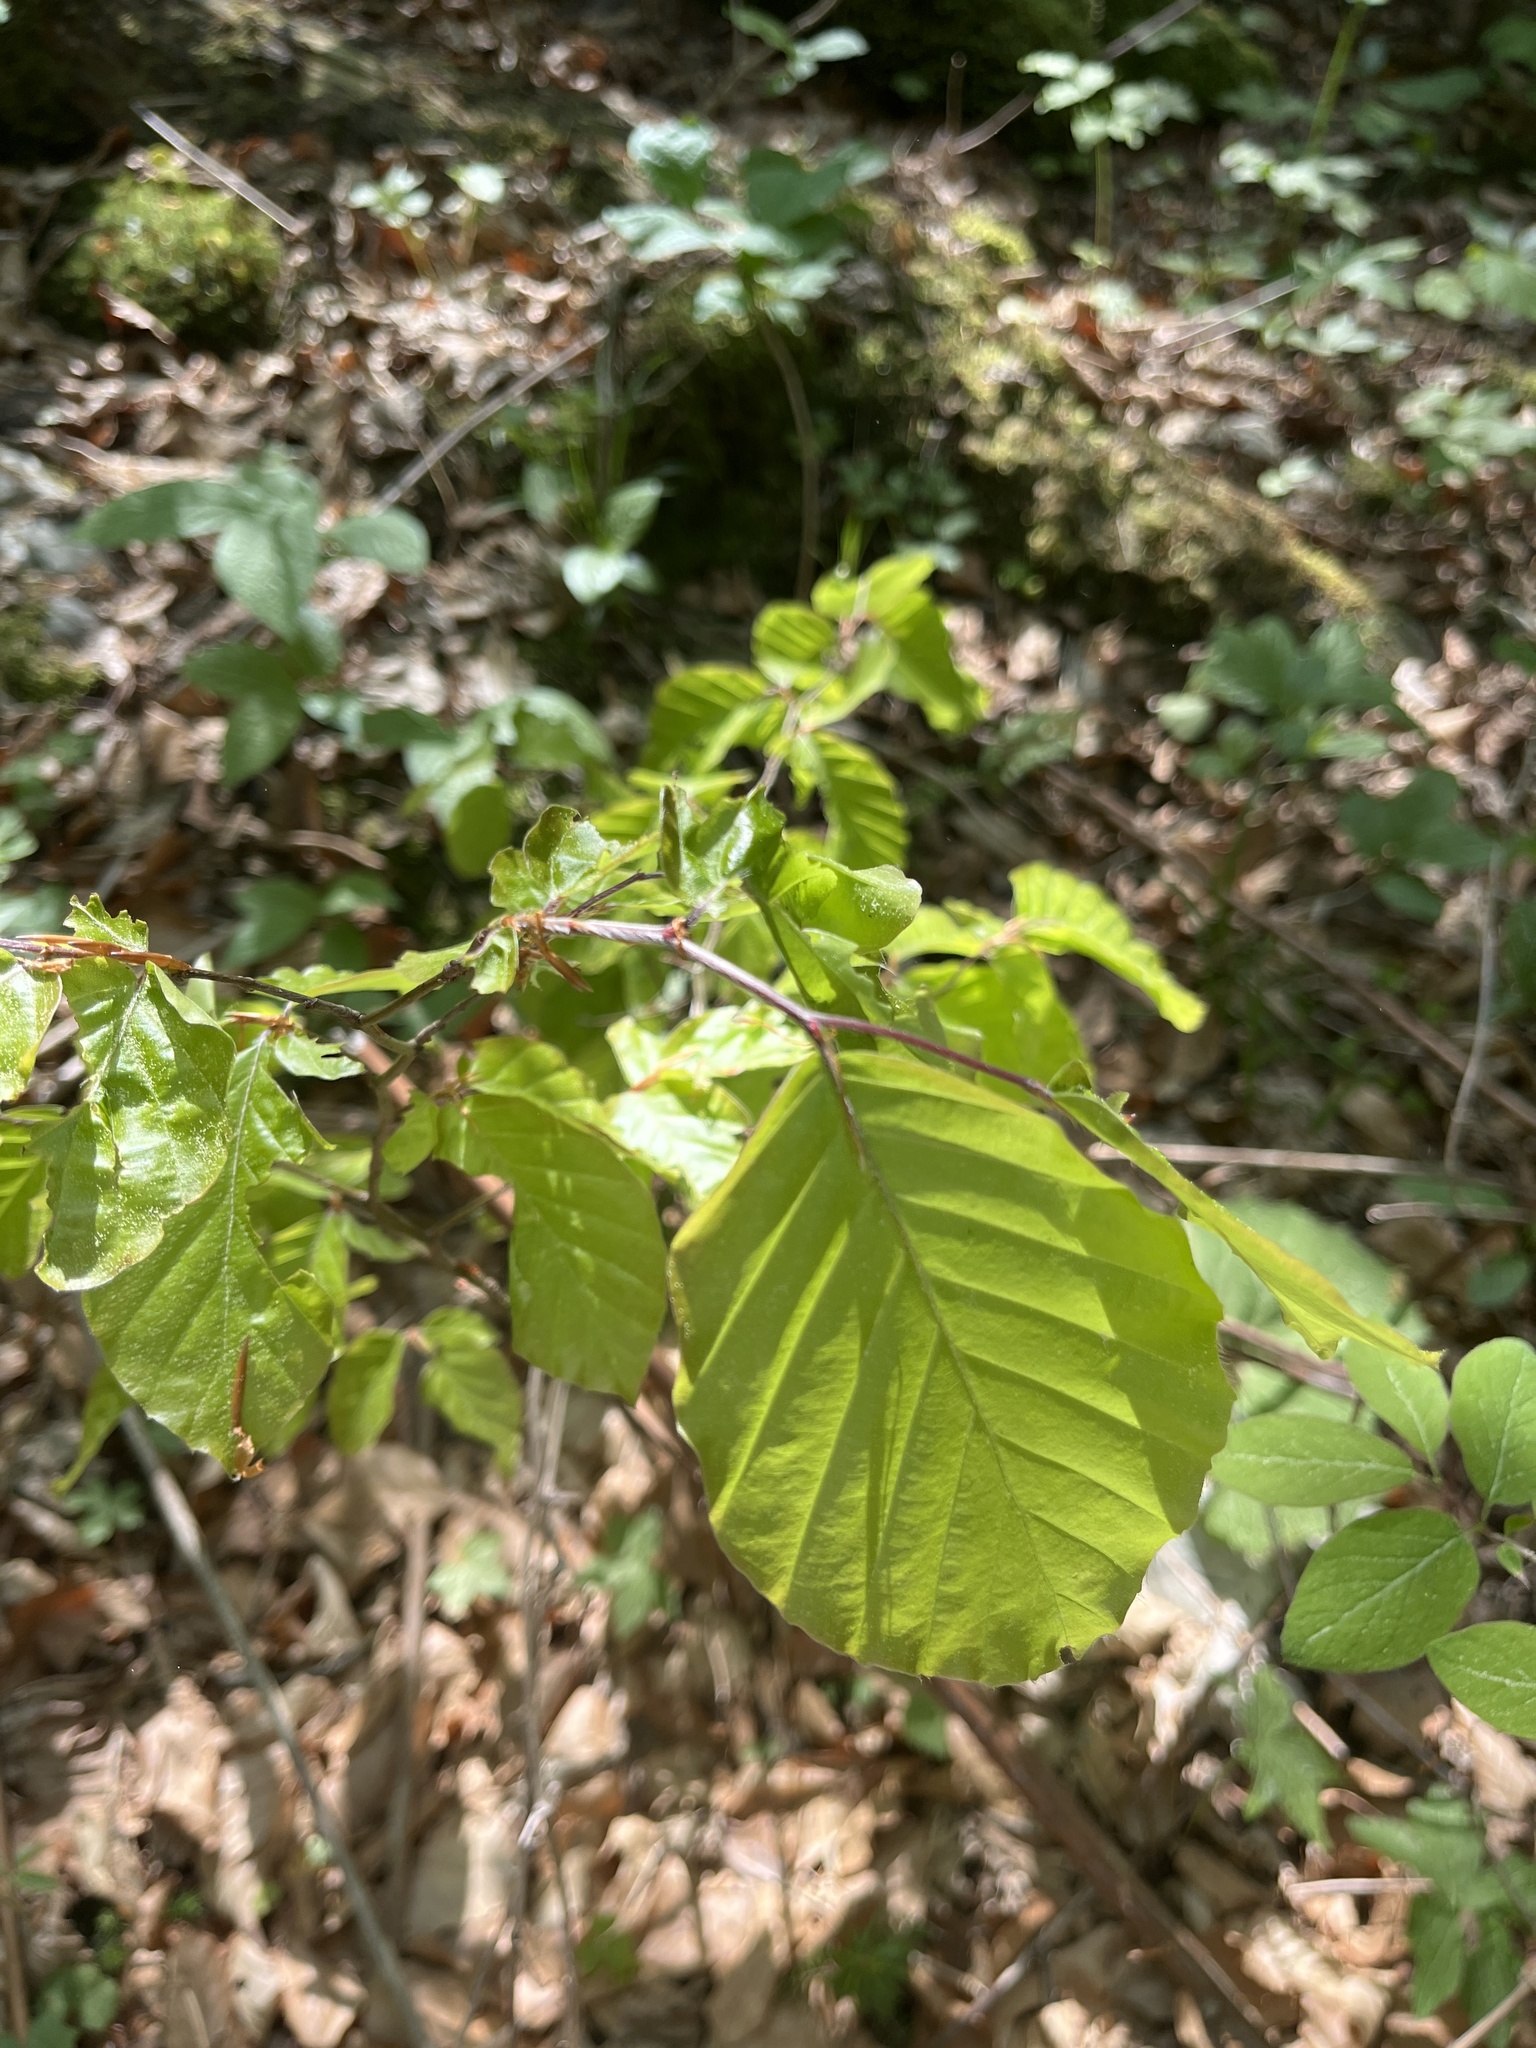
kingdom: Plantae
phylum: Tracheophyta
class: Magnoliopsida
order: Fagales
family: Fagaceae
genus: Fagus
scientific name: Fagus sylvatica
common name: Beech
